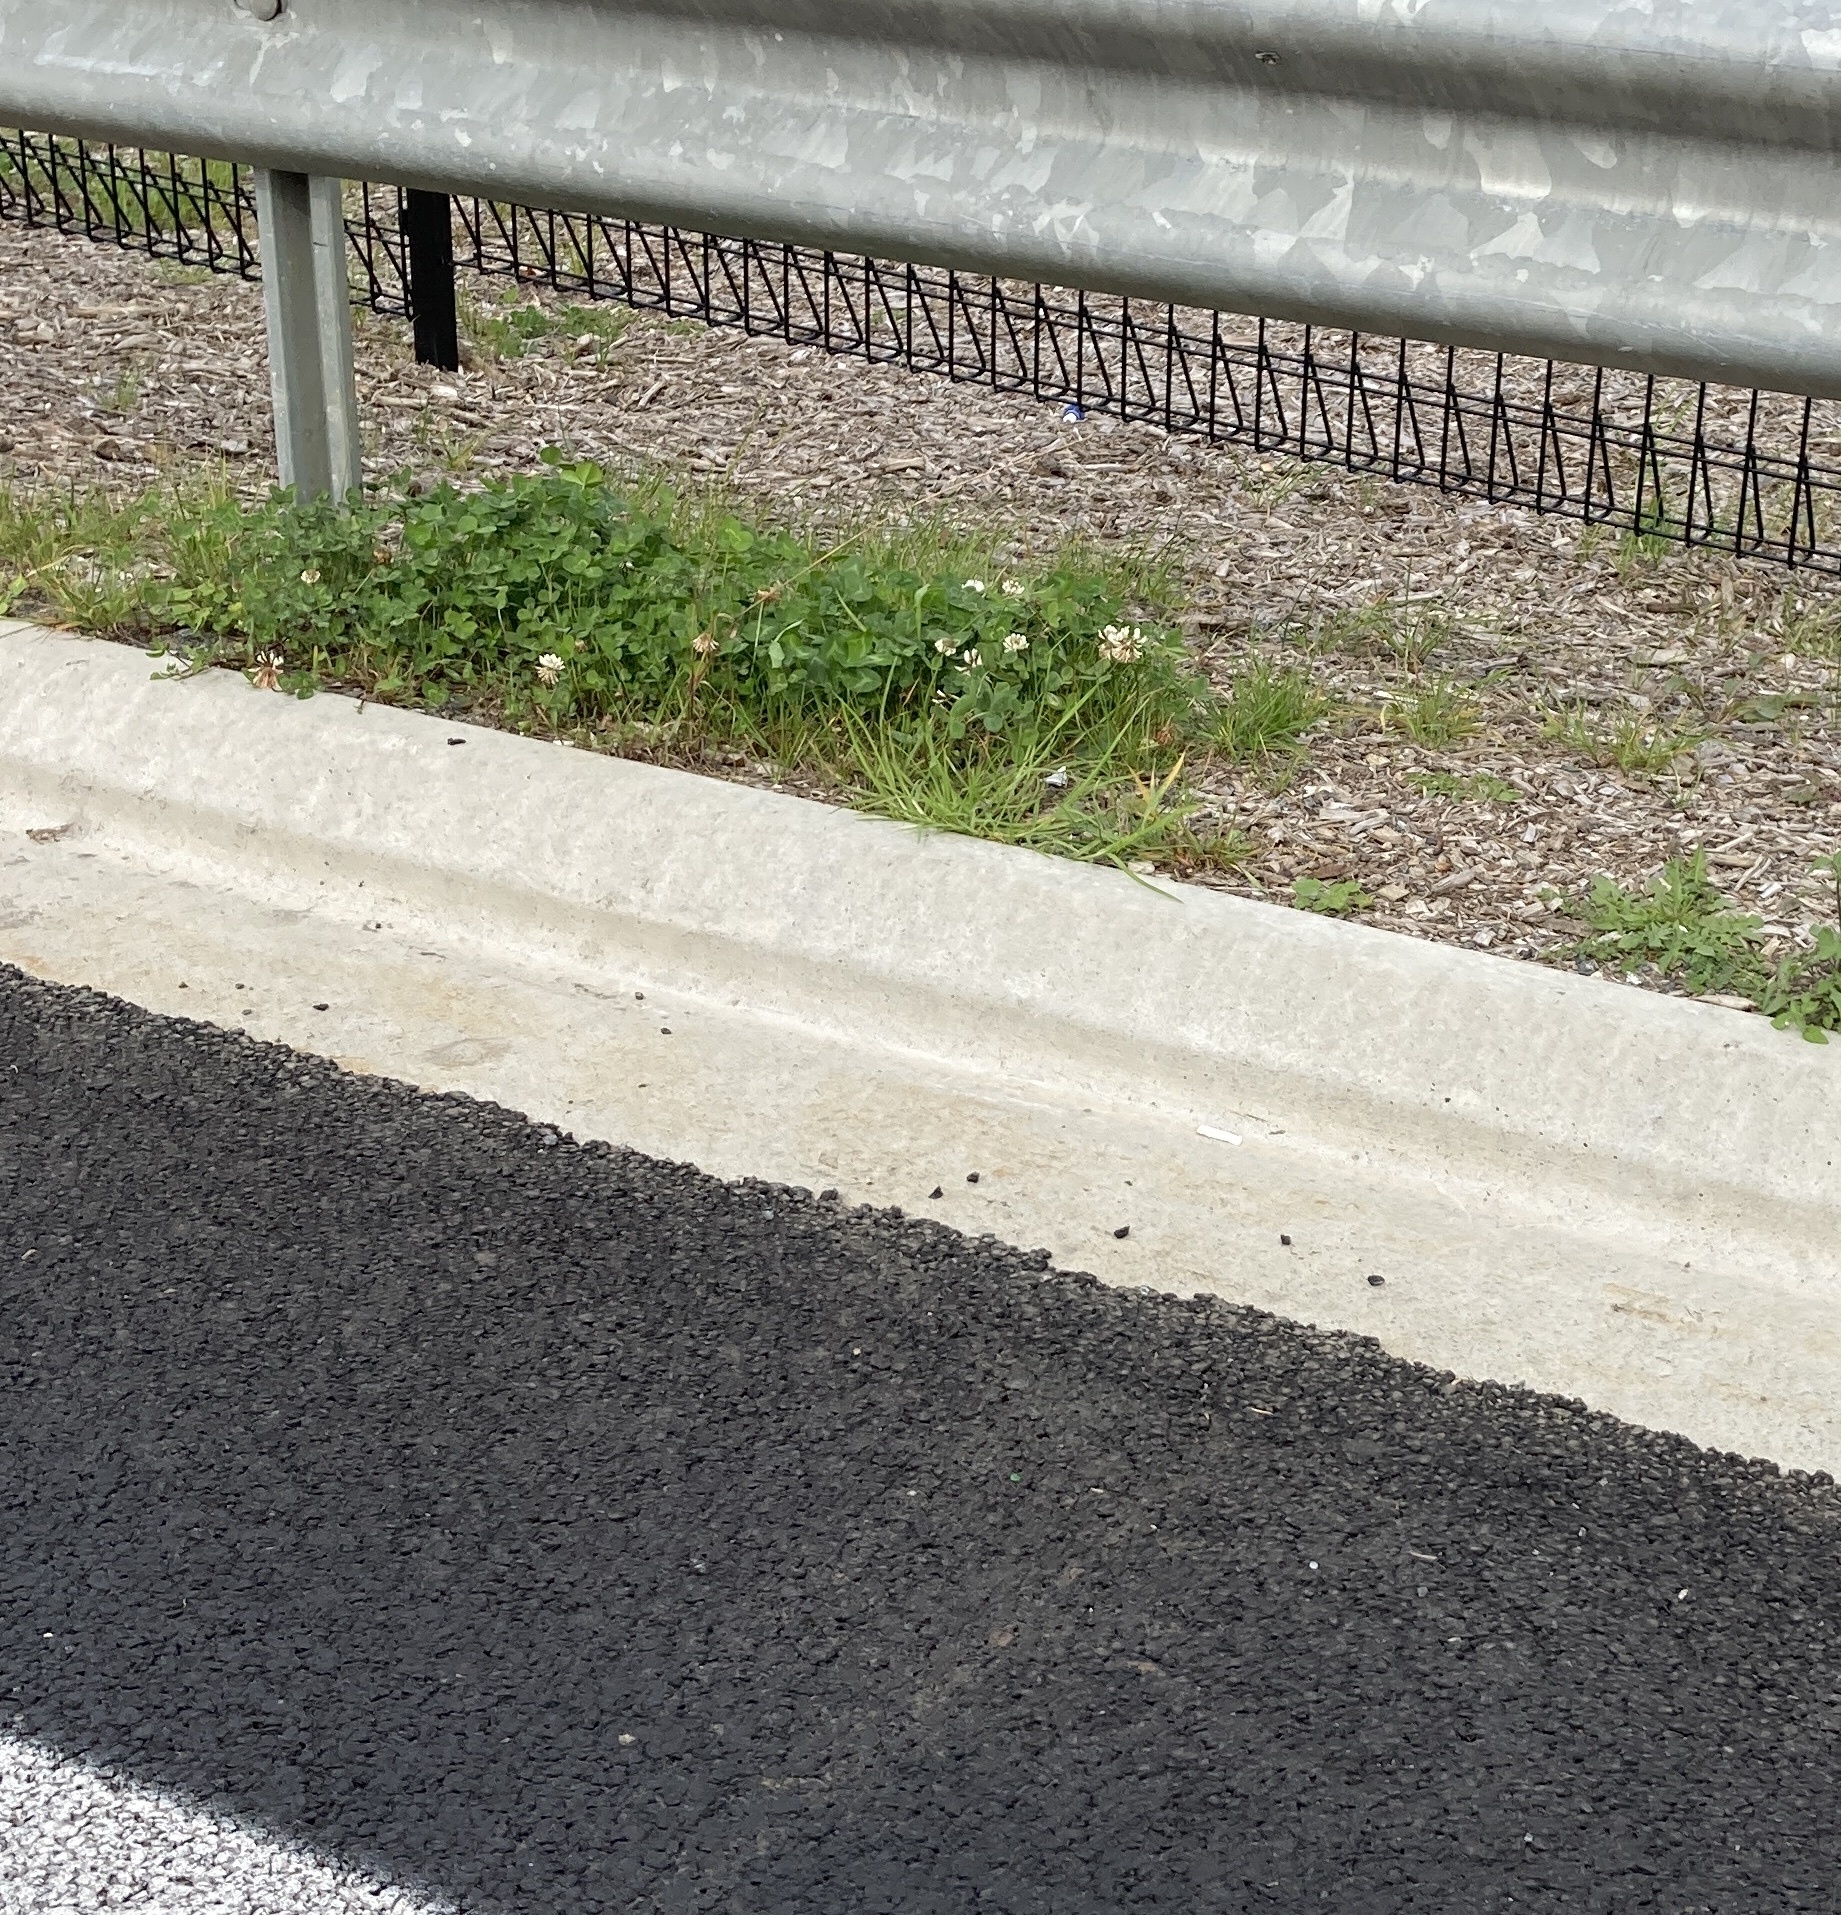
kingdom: Plantae
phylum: Tracheophyta
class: Magnoliopsida
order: Fabales
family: Fabaceae
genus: Trifolium
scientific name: Trifolium repens
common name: White clover
